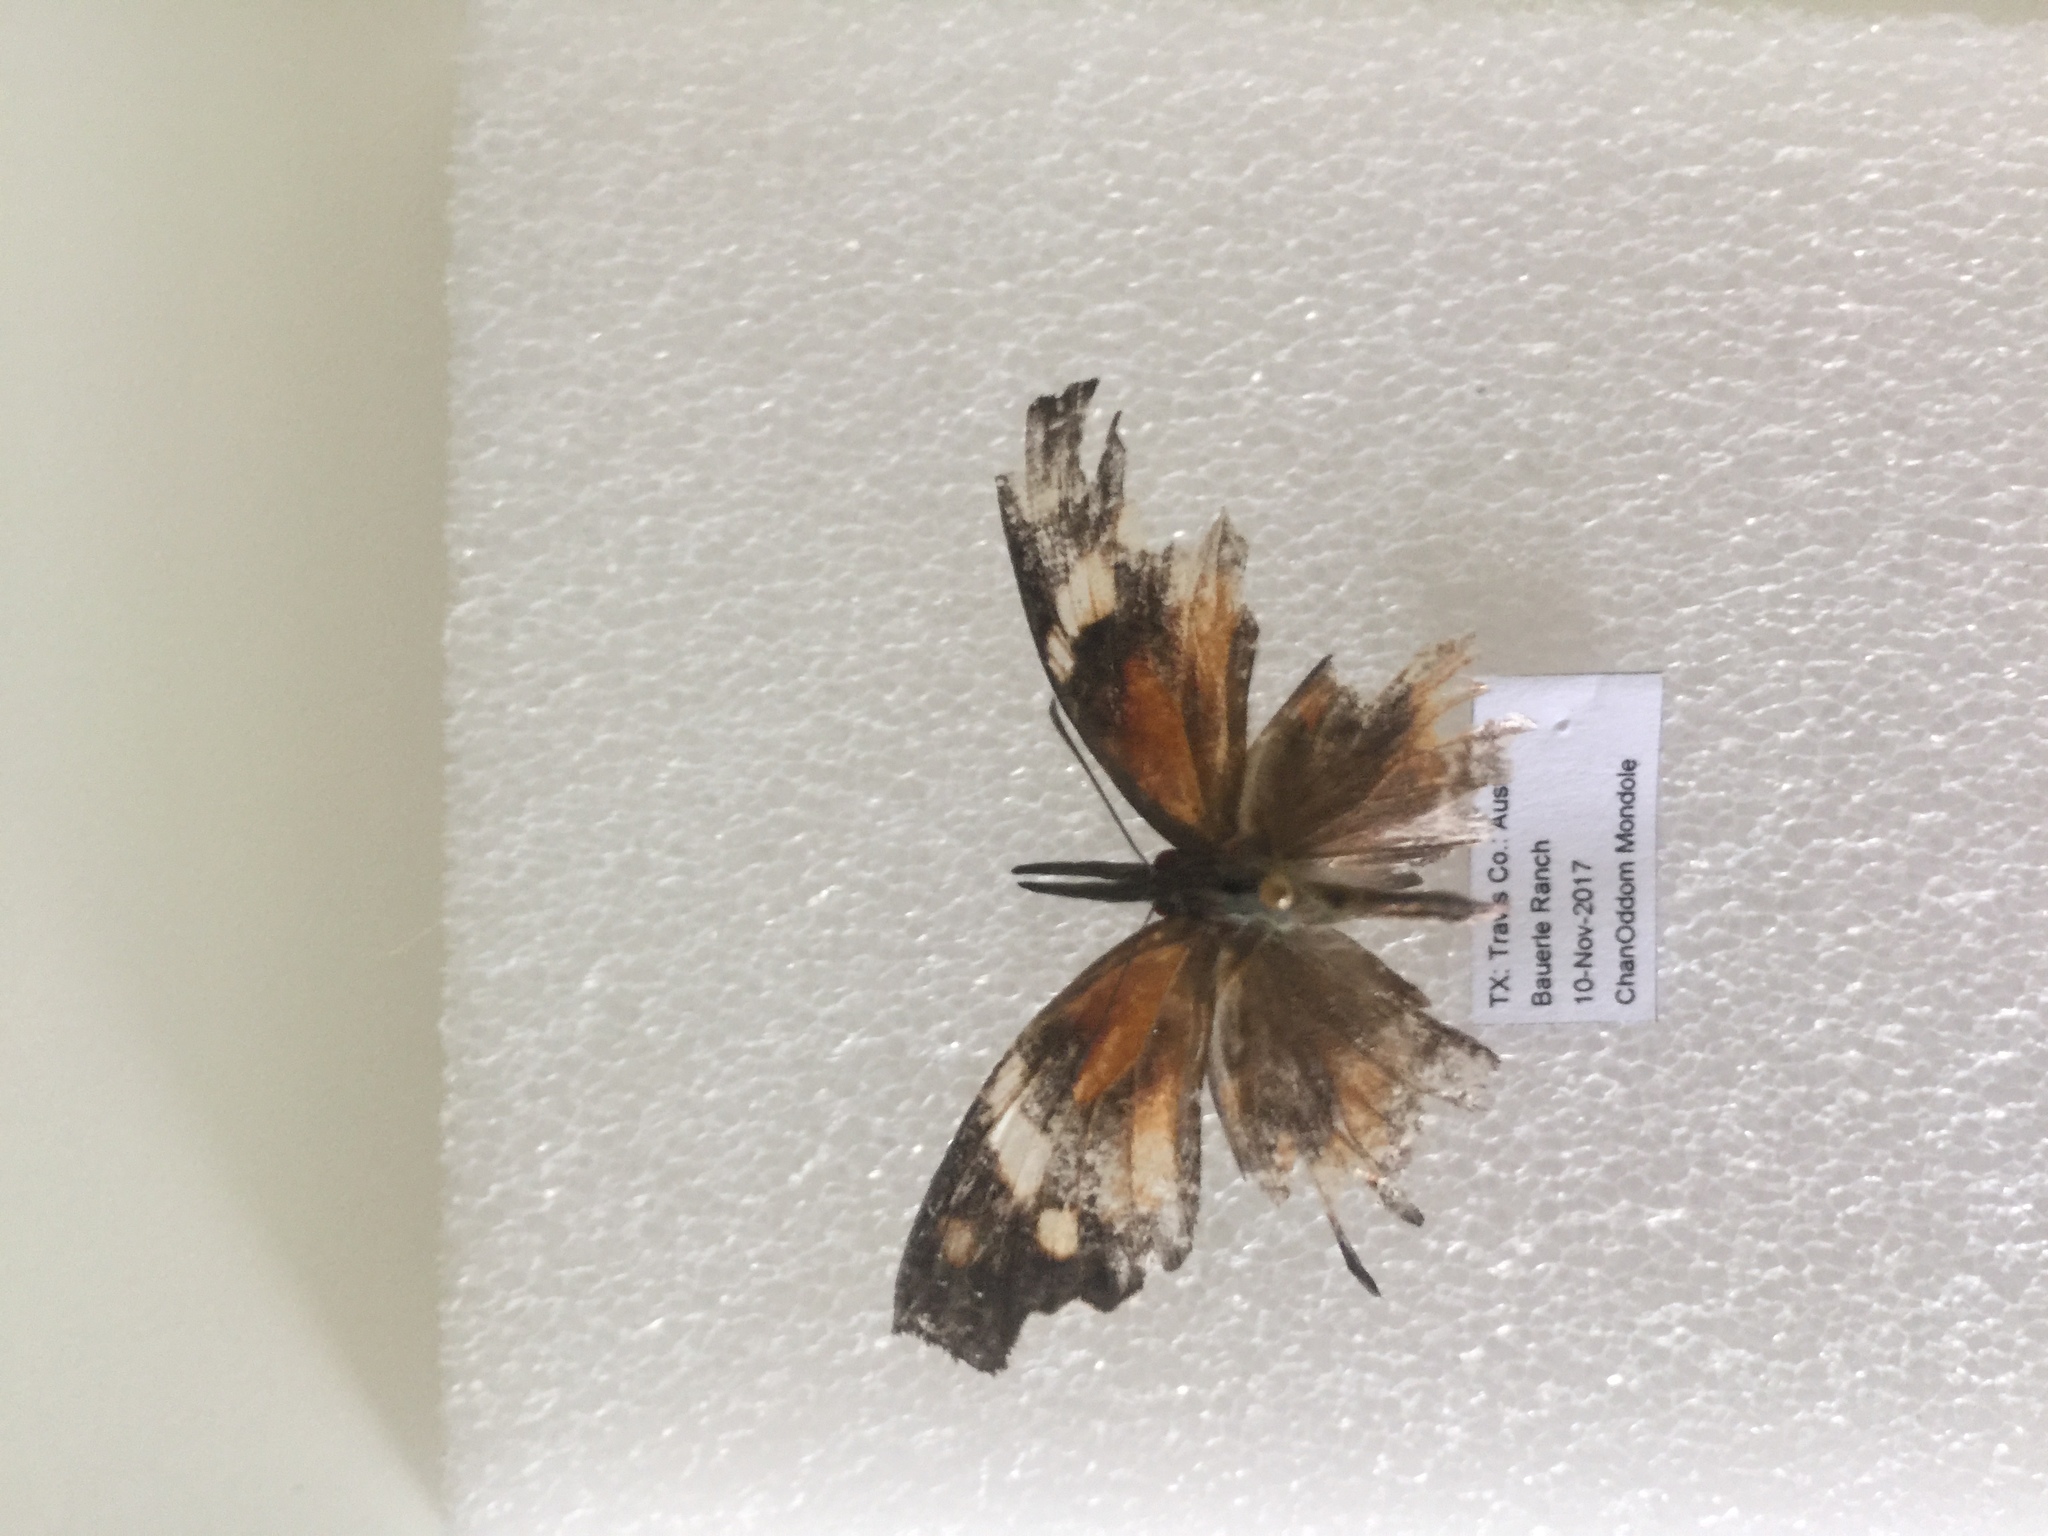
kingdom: Animalia
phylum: Arthropoda
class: Insecta
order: Lepidoptera
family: Nymphalidae
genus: Libytheana
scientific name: Libytheana carinenta
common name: American snout
